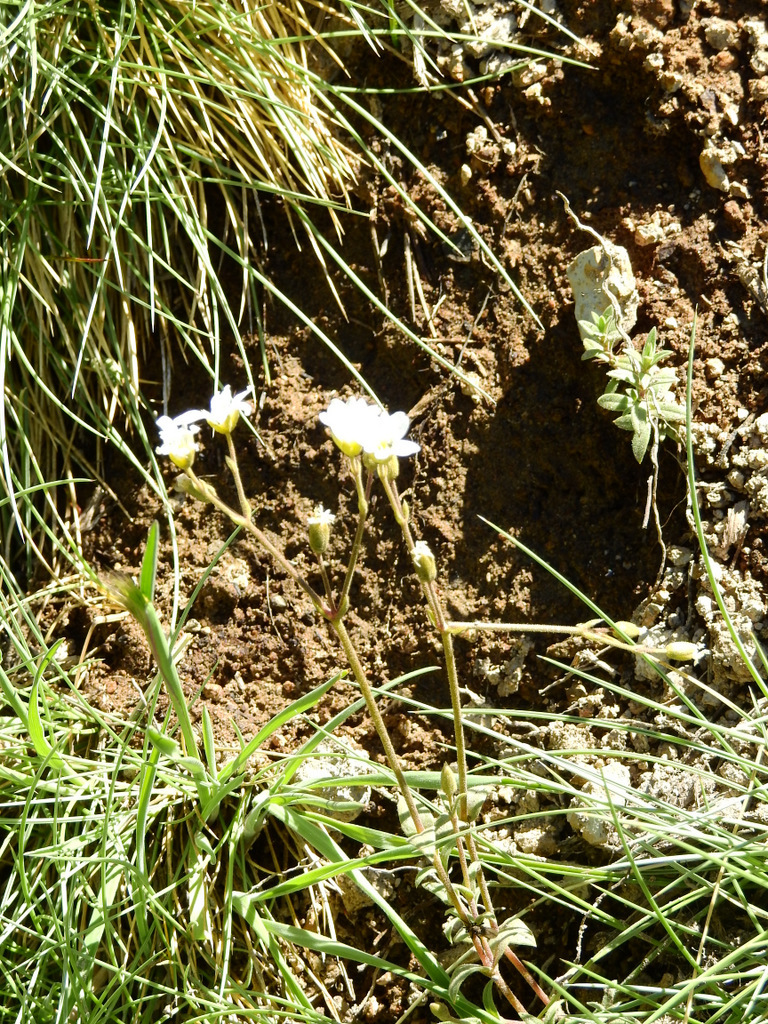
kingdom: Plantae
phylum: Tracheophyta
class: Magnoliopsida
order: Caryophyllales
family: Caryophyllaceae
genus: Cerastium
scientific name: Cerastium arvense
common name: Field mouse-ear
